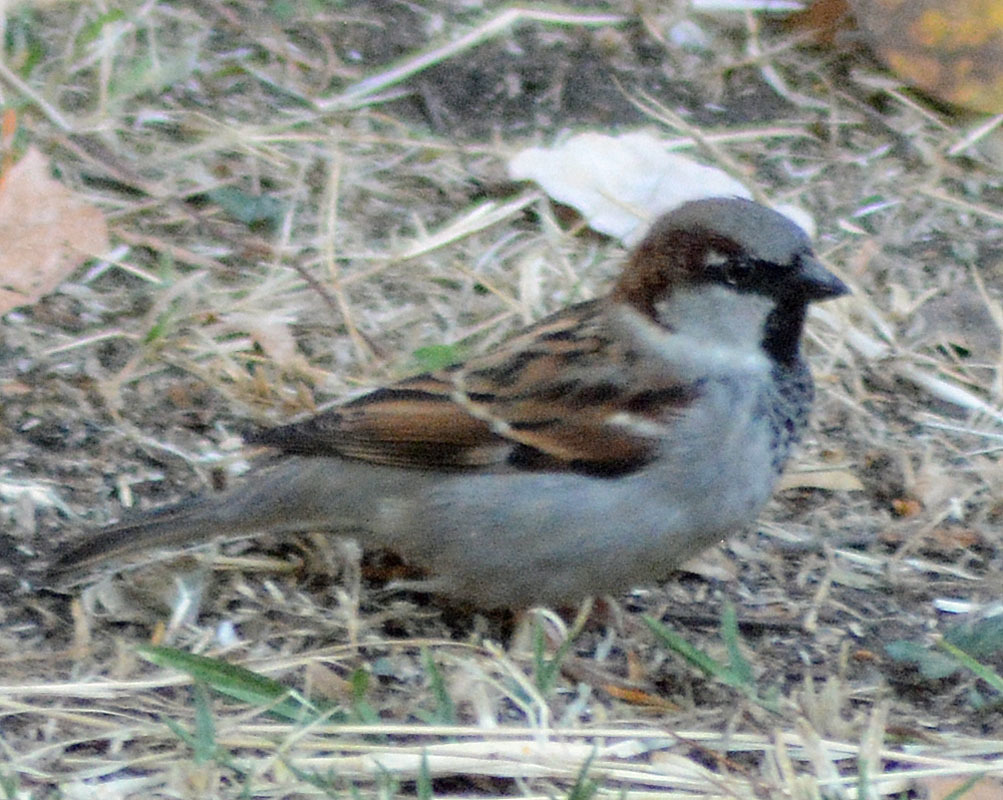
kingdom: Animalia
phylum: Chordata
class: Aves
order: Passeriformes
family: Passeridae
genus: Passer
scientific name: Passer domesticus
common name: House sparrow
